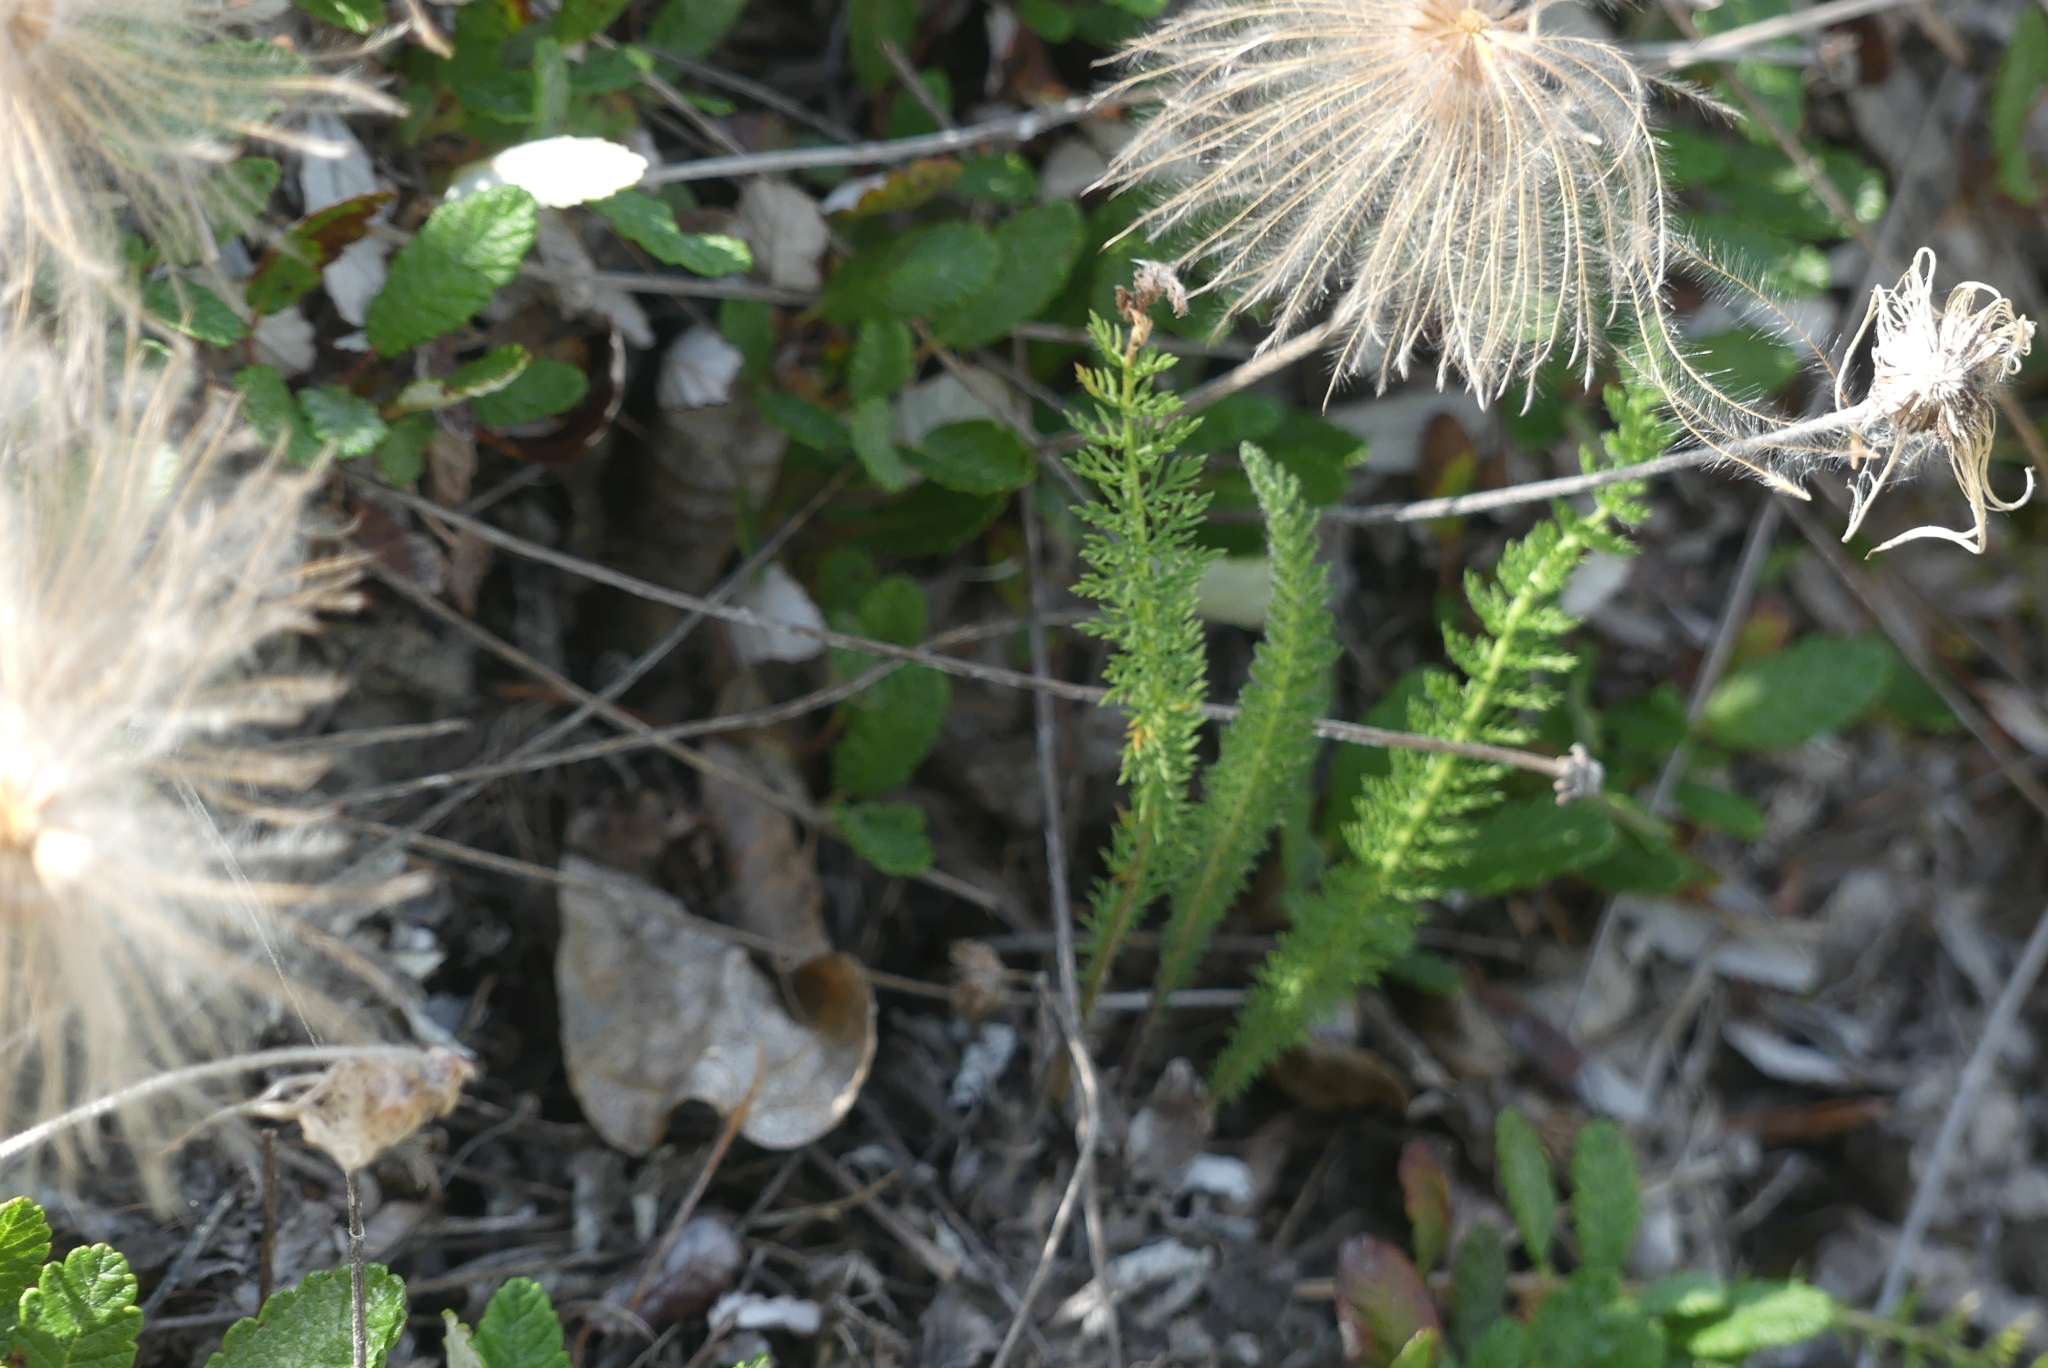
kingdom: Plantae
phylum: Tracheophyta
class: Magnoliopsida
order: Asterales
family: Asteraceae
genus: Achillea
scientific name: Achillea millefolium
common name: Yarrow
